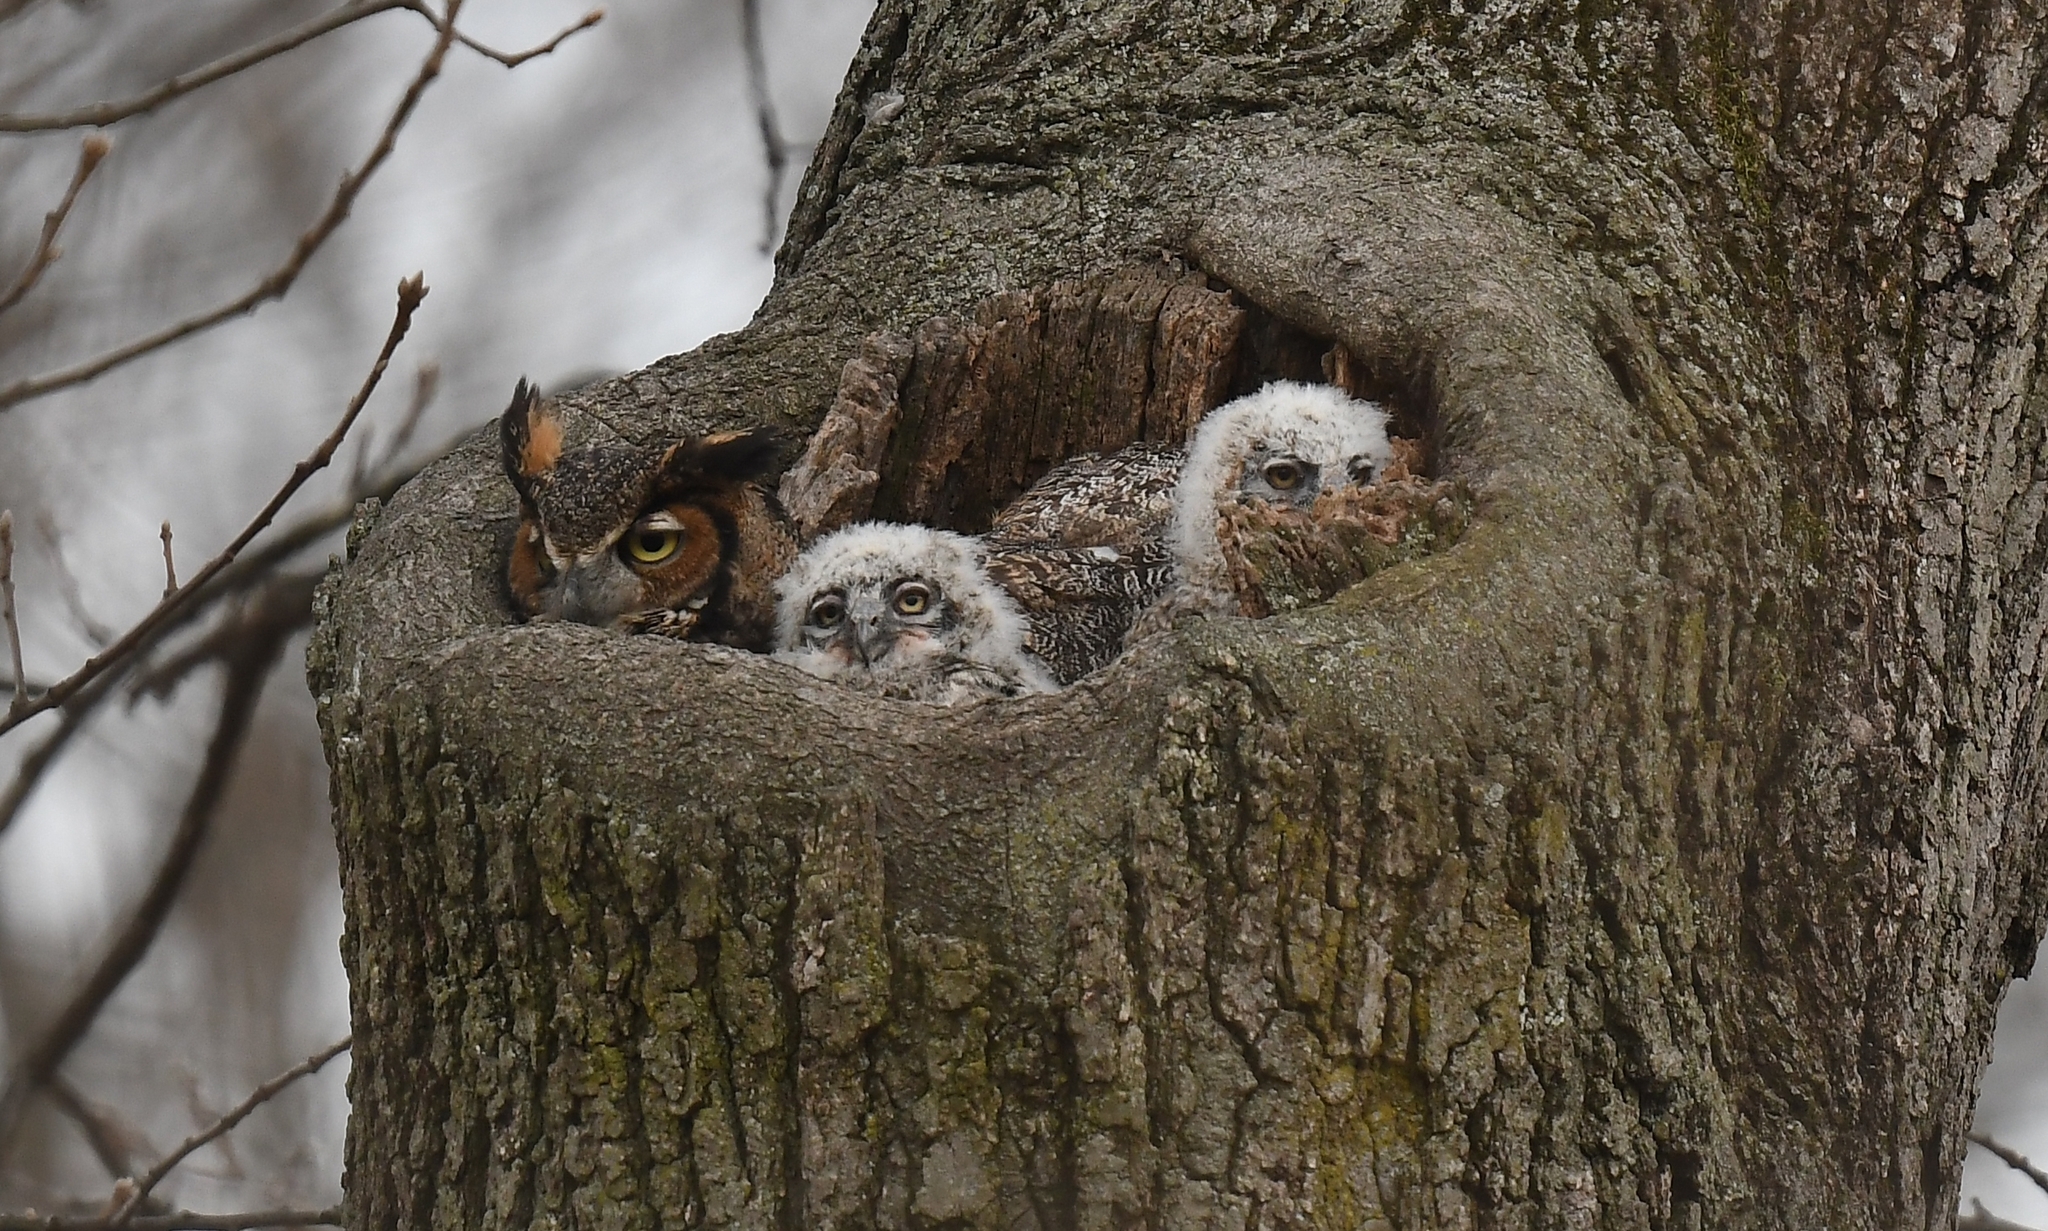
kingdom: Animalia
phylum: Chordata
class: Aves
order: Strigiformes
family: Strigidae
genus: Bubo
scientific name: Bubo virginianus
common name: Great horned owl
